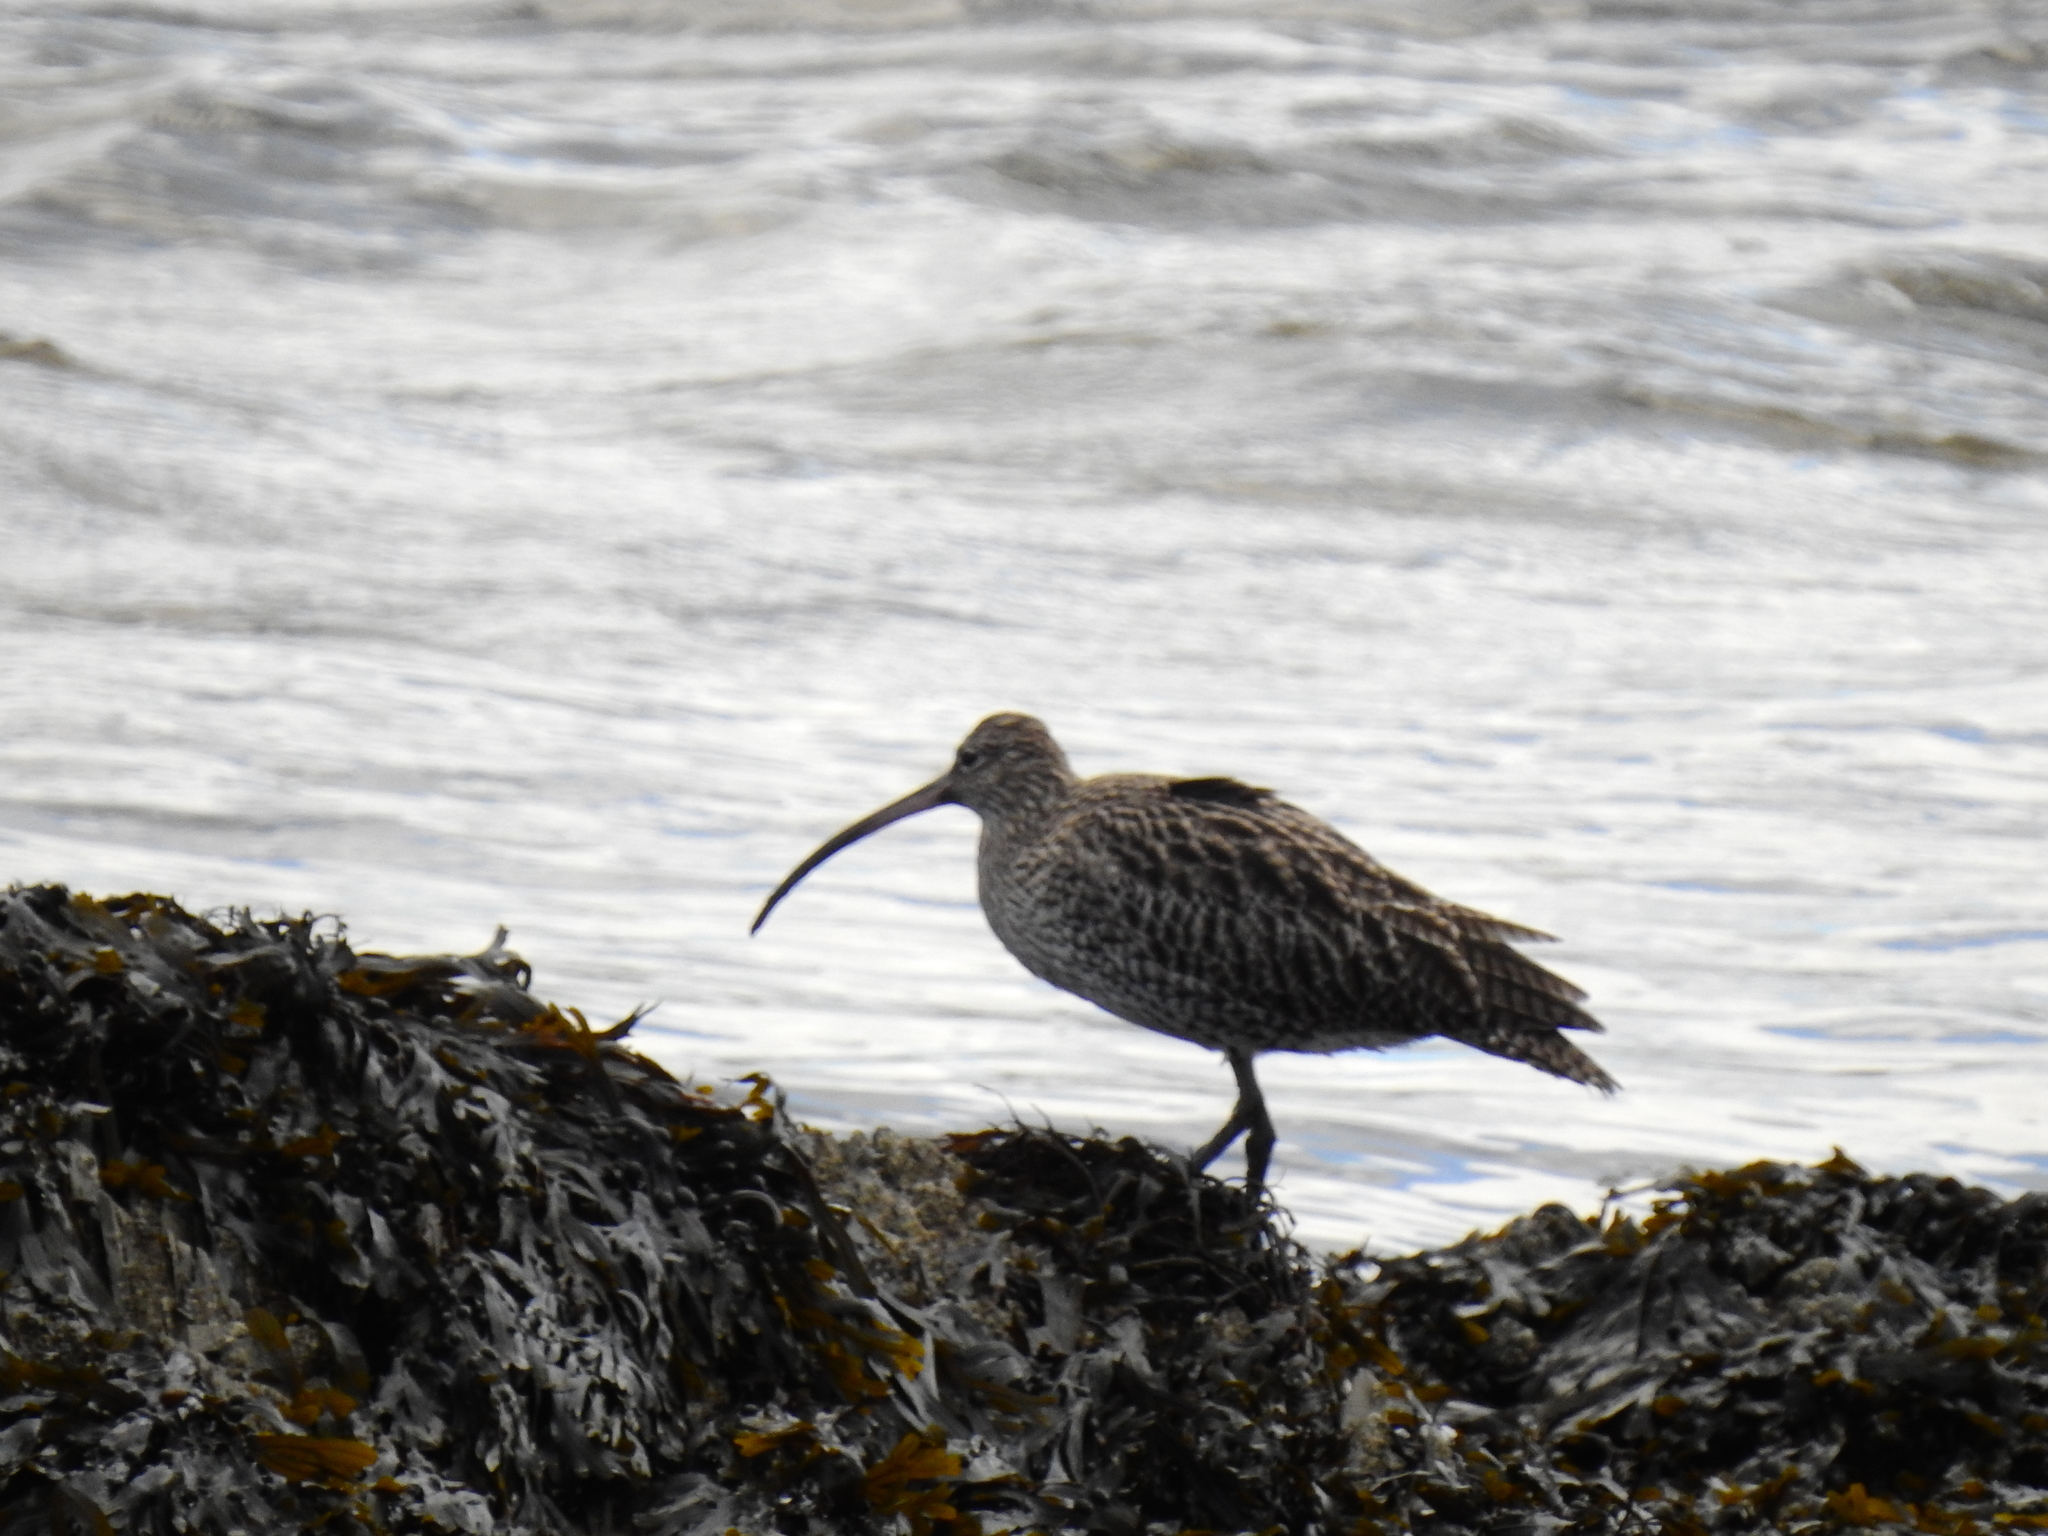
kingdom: Animalia
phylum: Chordata
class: Aves
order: Charadriiformes
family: Scolopacidae
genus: Numenius
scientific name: Numenius arquata
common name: Eurasian curlew
